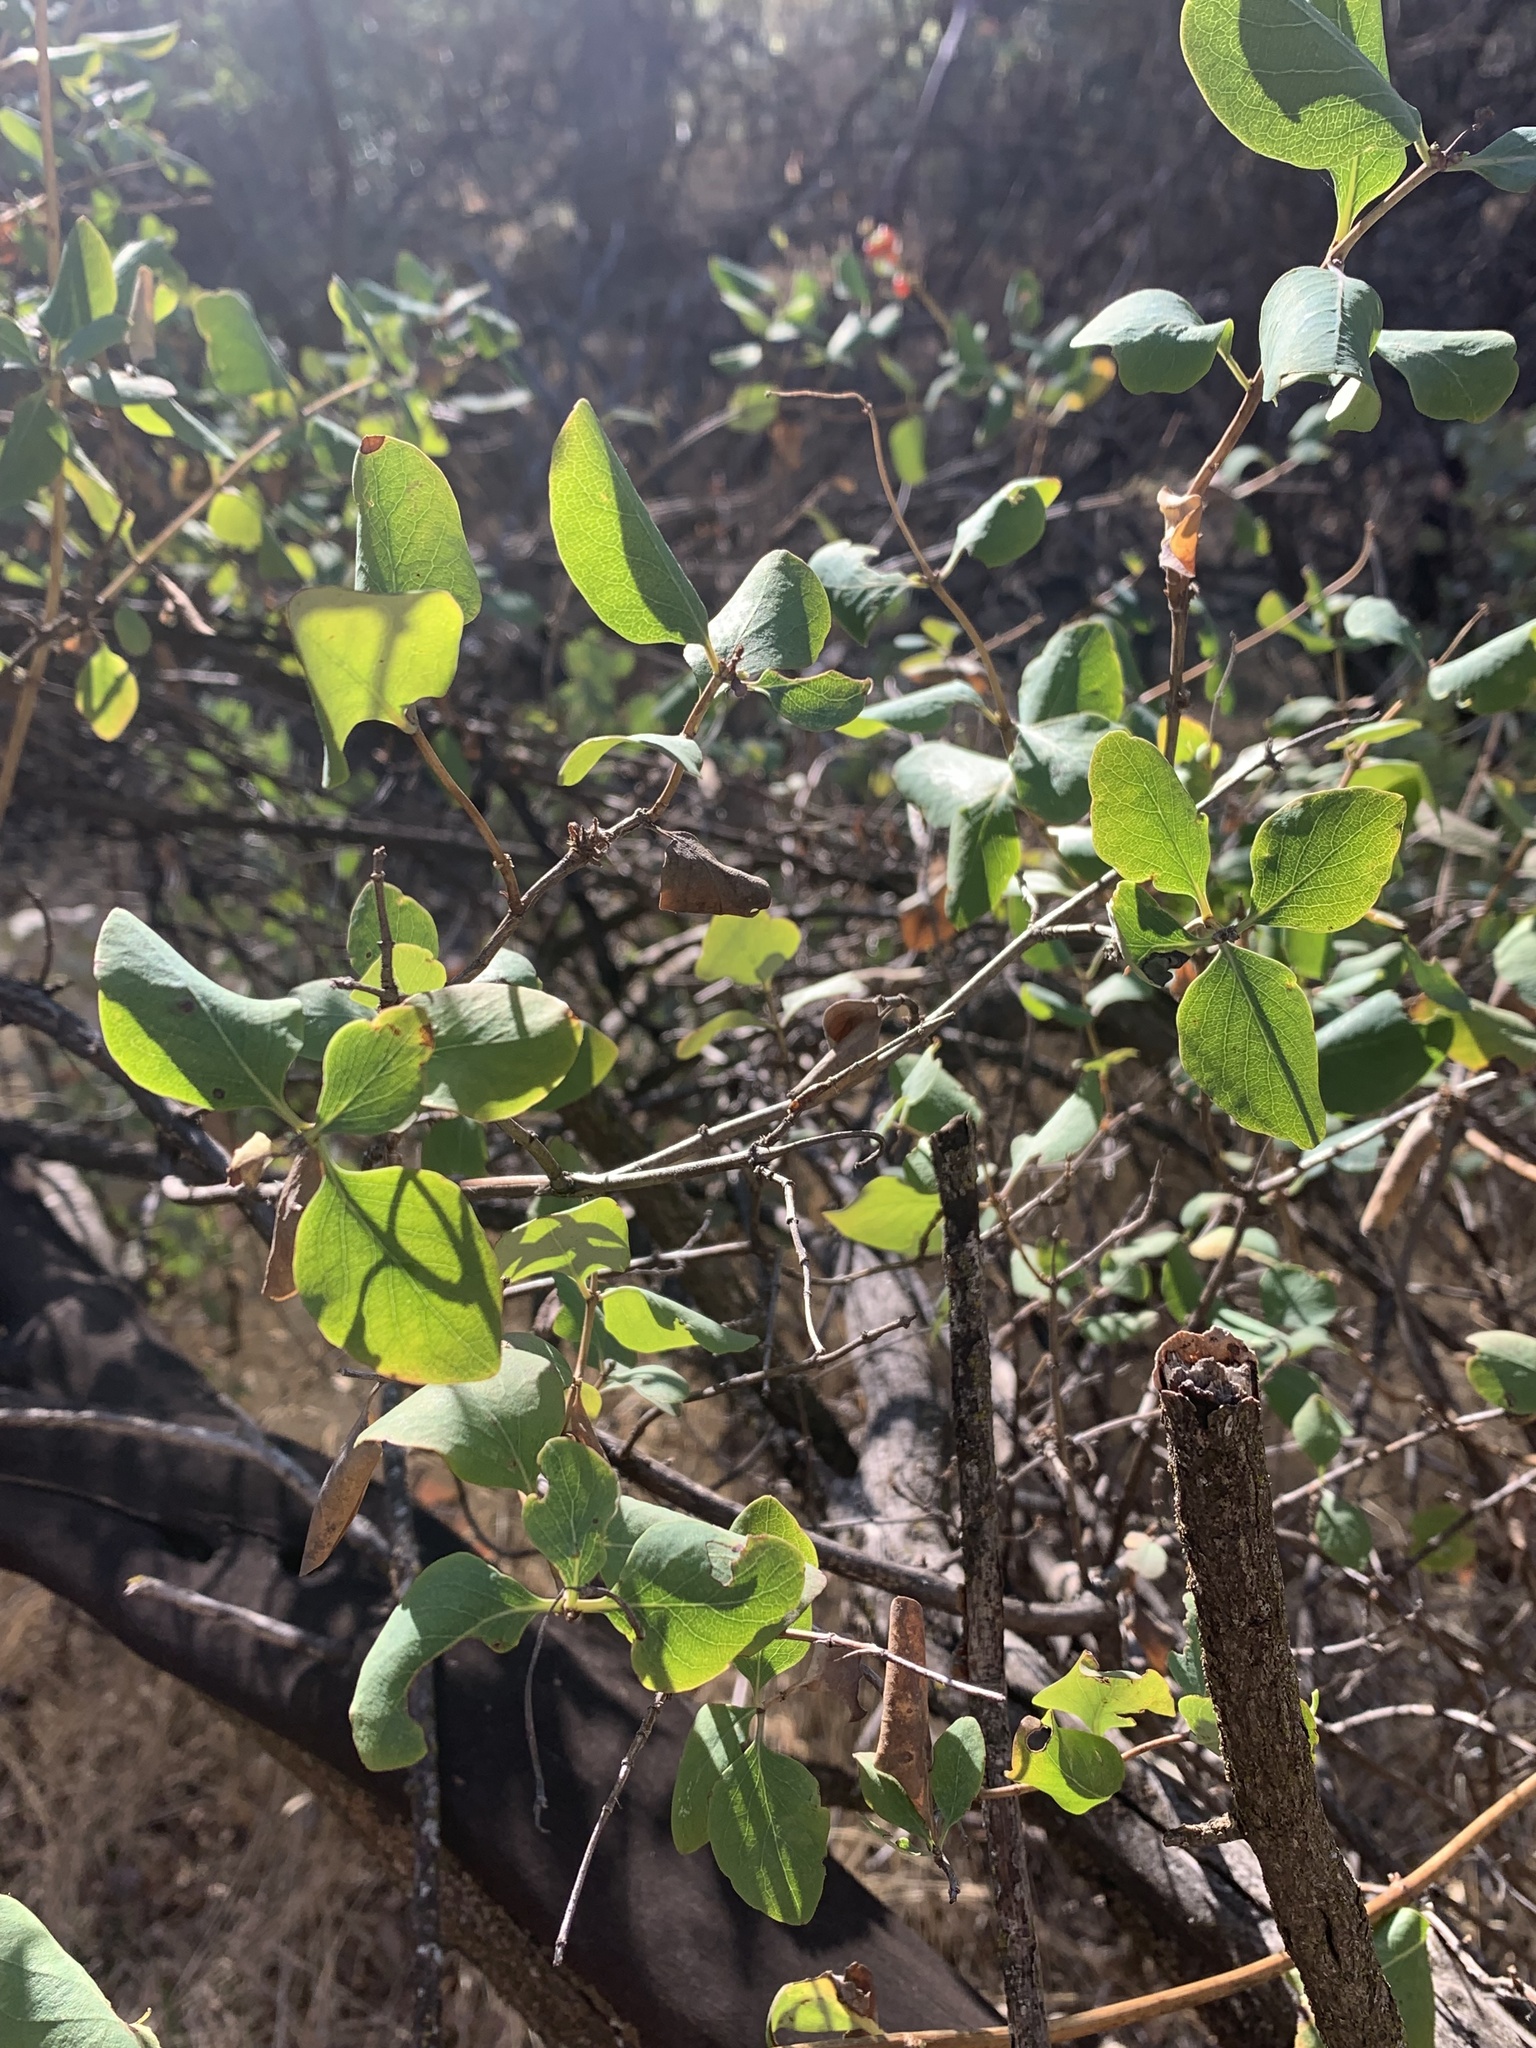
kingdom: Plantae
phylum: Tracheophyta
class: Magnoliopsida
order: Dipsacales
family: Caprifoliaceae
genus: Lonicera
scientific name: Lonicera hispidula
